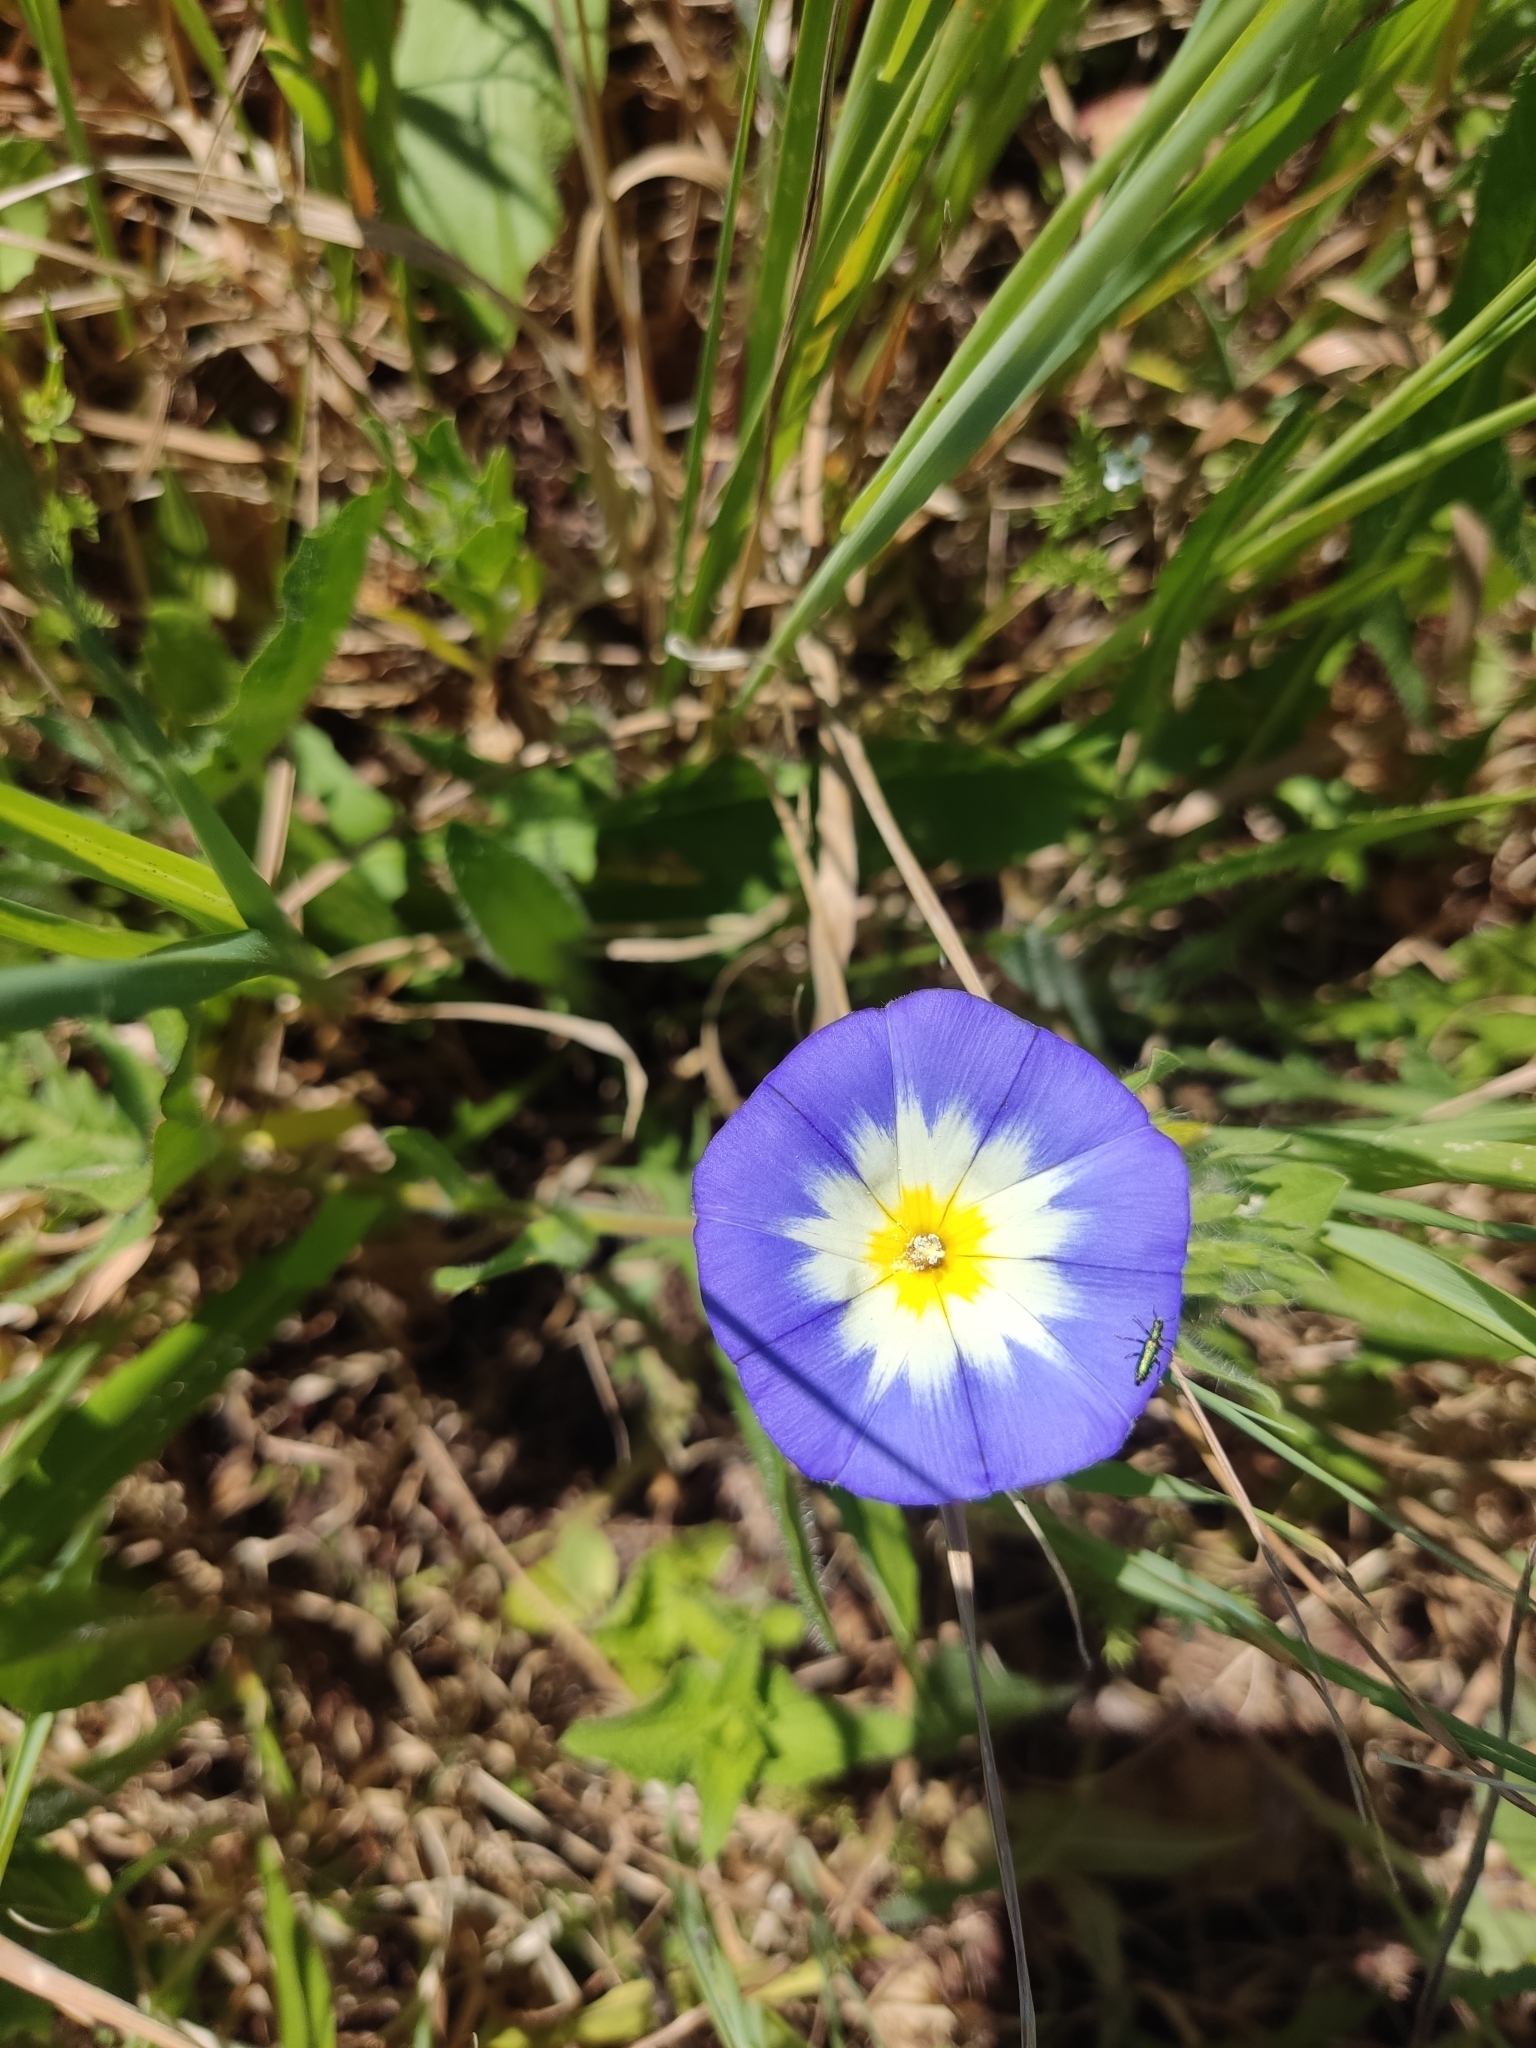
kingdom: Plantae
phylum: Tracheophyta
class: Magnoliopsida
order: Solanales
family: Convolvulaceae
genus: Convolvulus
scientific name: Convolvulus tricolor
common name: Dwarf morning-glory
